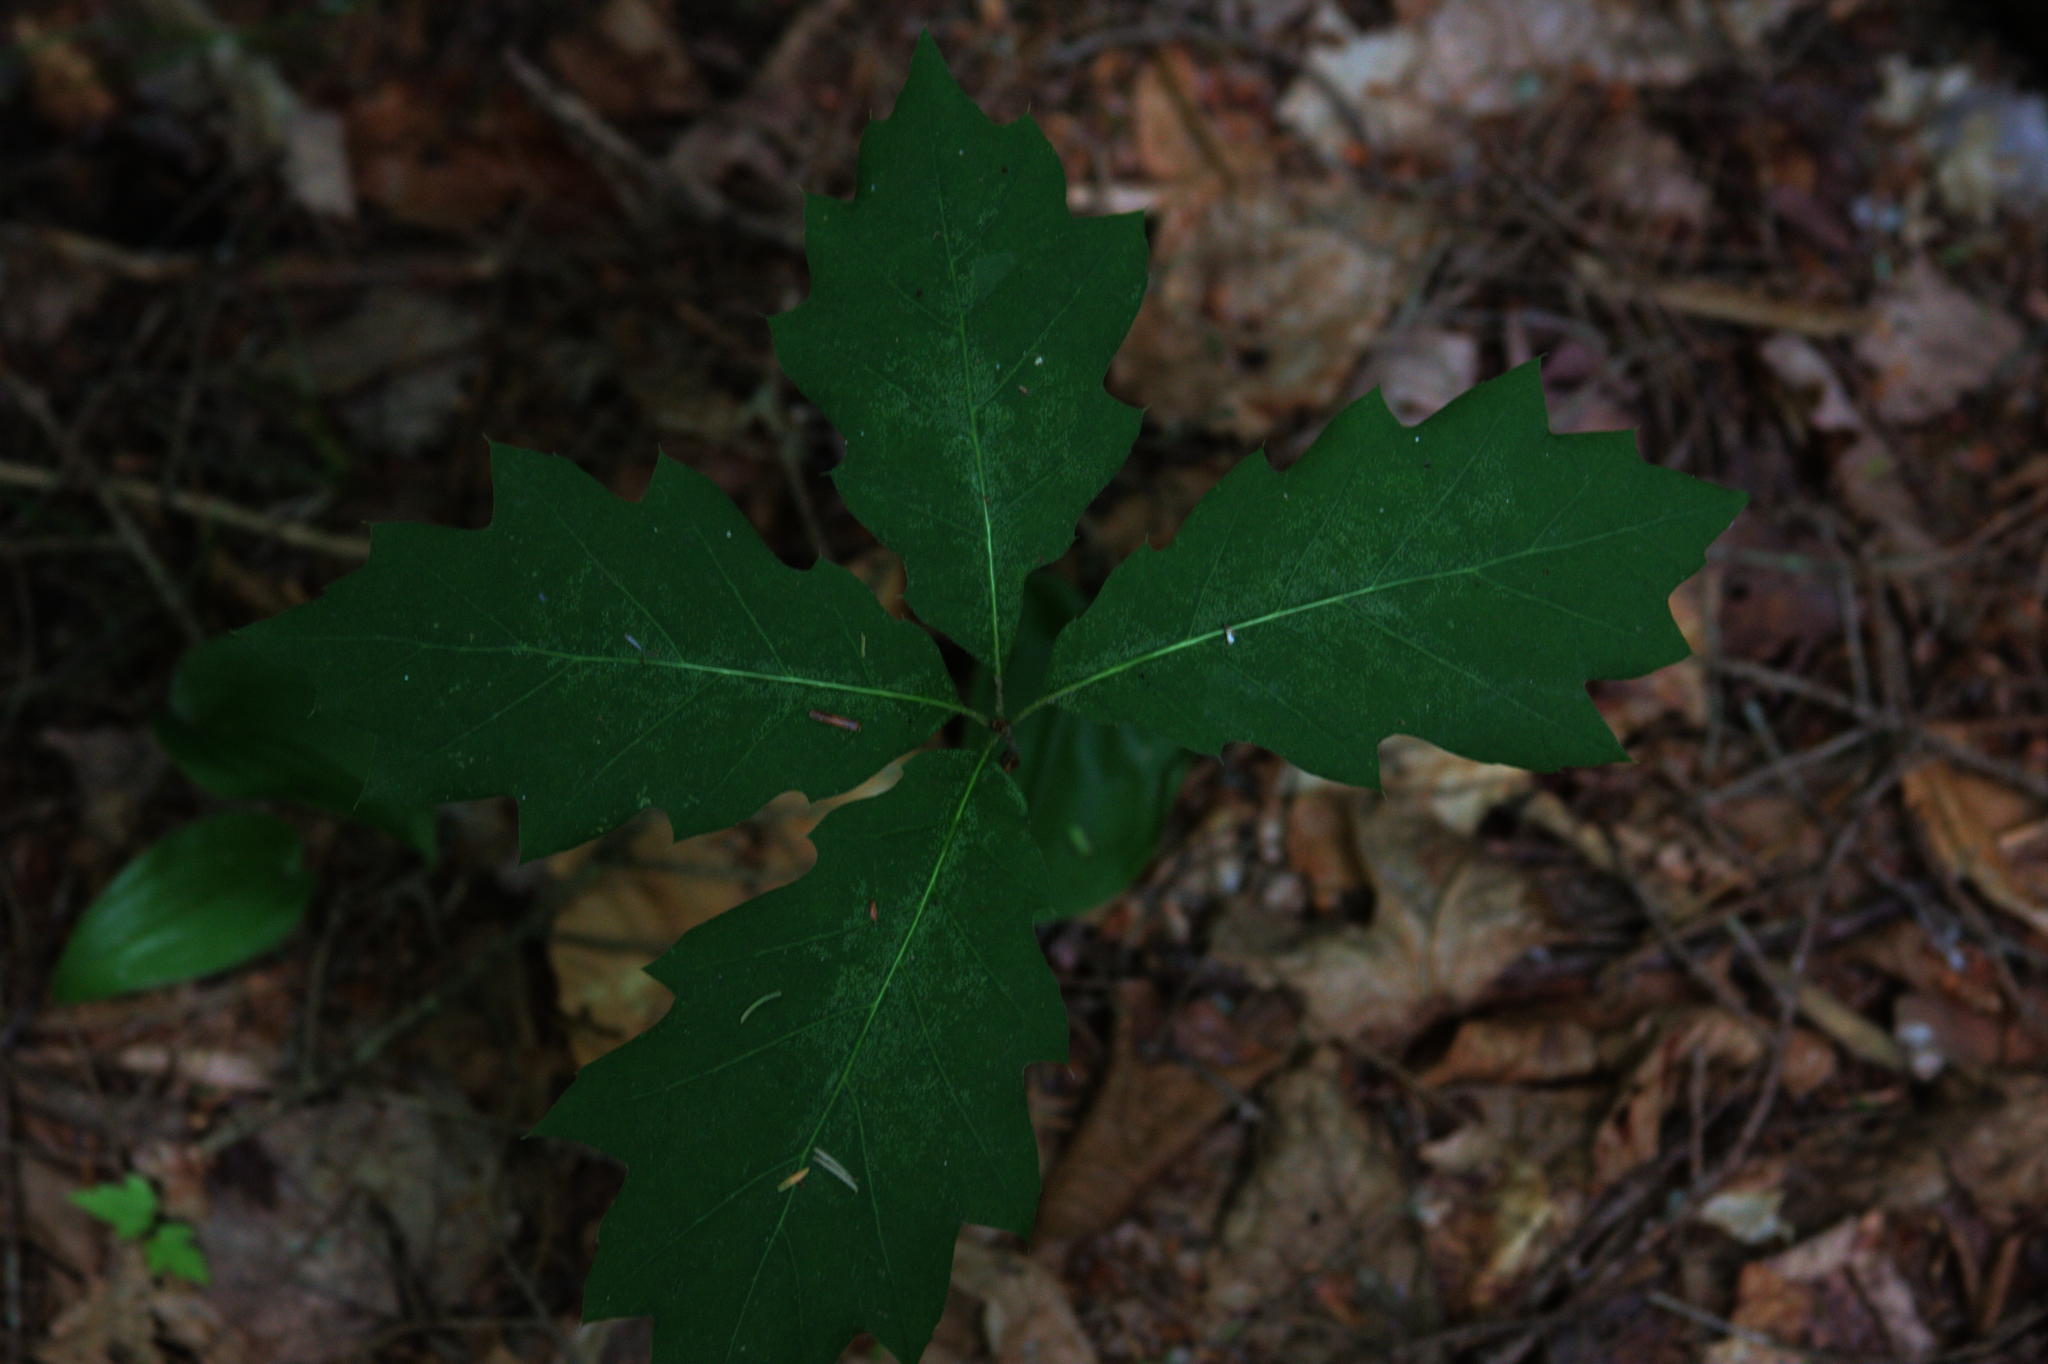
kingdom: Plantae
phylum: Tracheophyta
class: Magnoliopsida
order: Fagales
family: Fagaceae
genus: Quercus
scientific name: Quercus rubra
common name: Red oak
